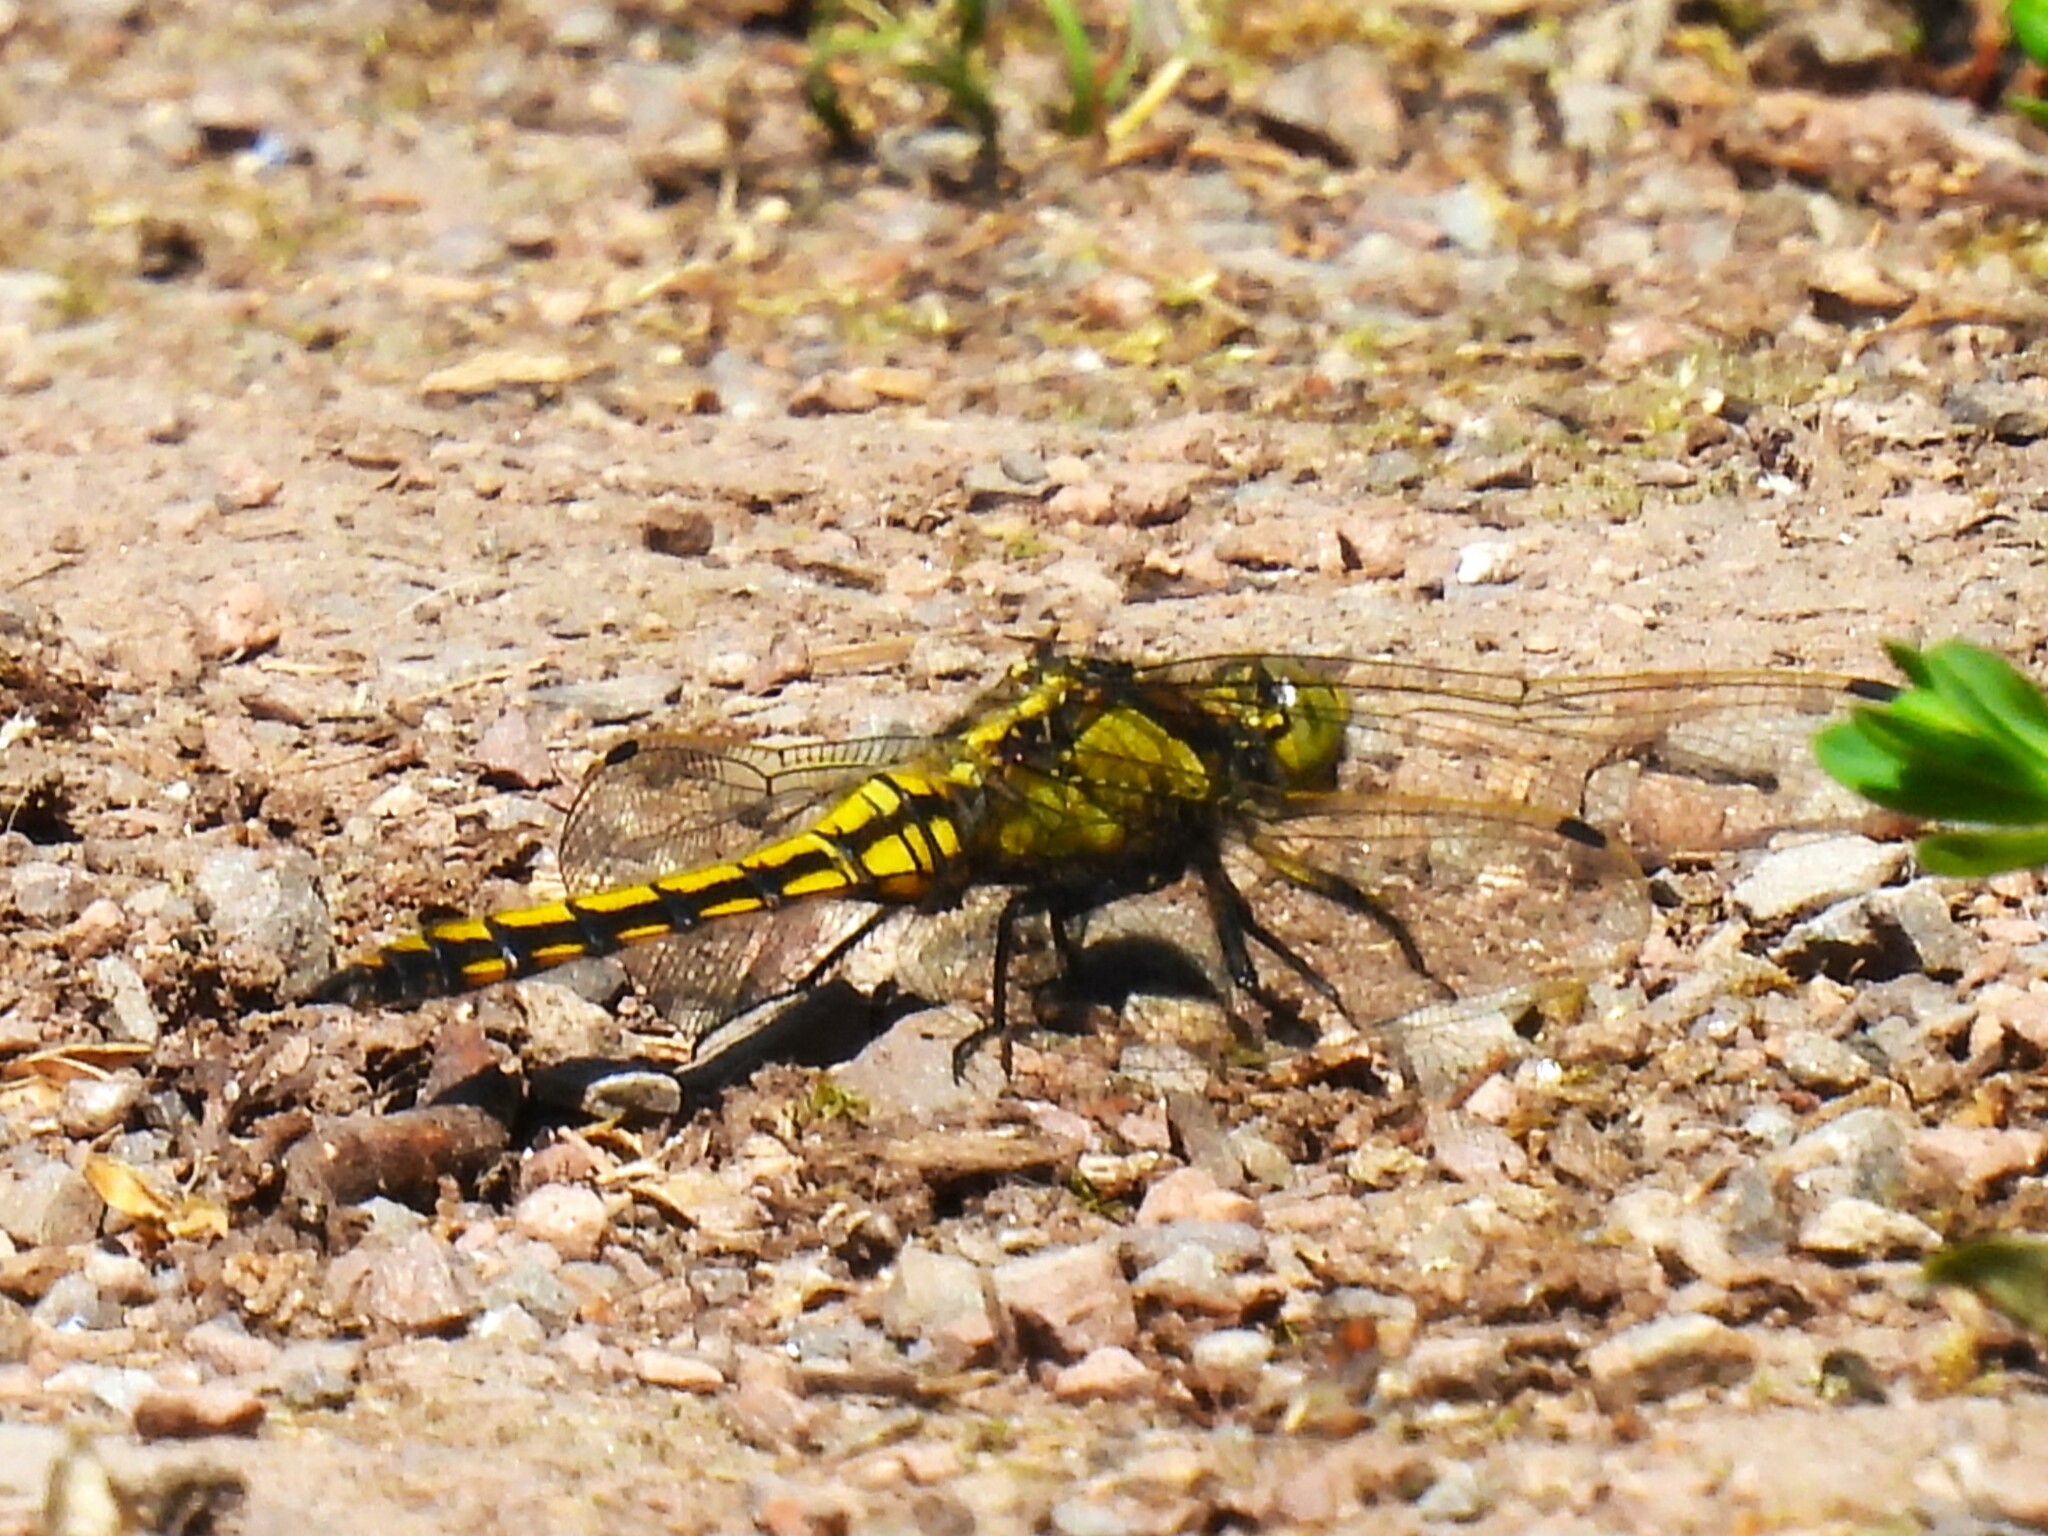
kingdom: Animalia
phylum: Arthropoda
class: Insecta
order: Odonata
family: Libellulidae
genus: Orthetrum
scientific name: Orthetrum cancellatum
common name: Black-tailed skimmer
